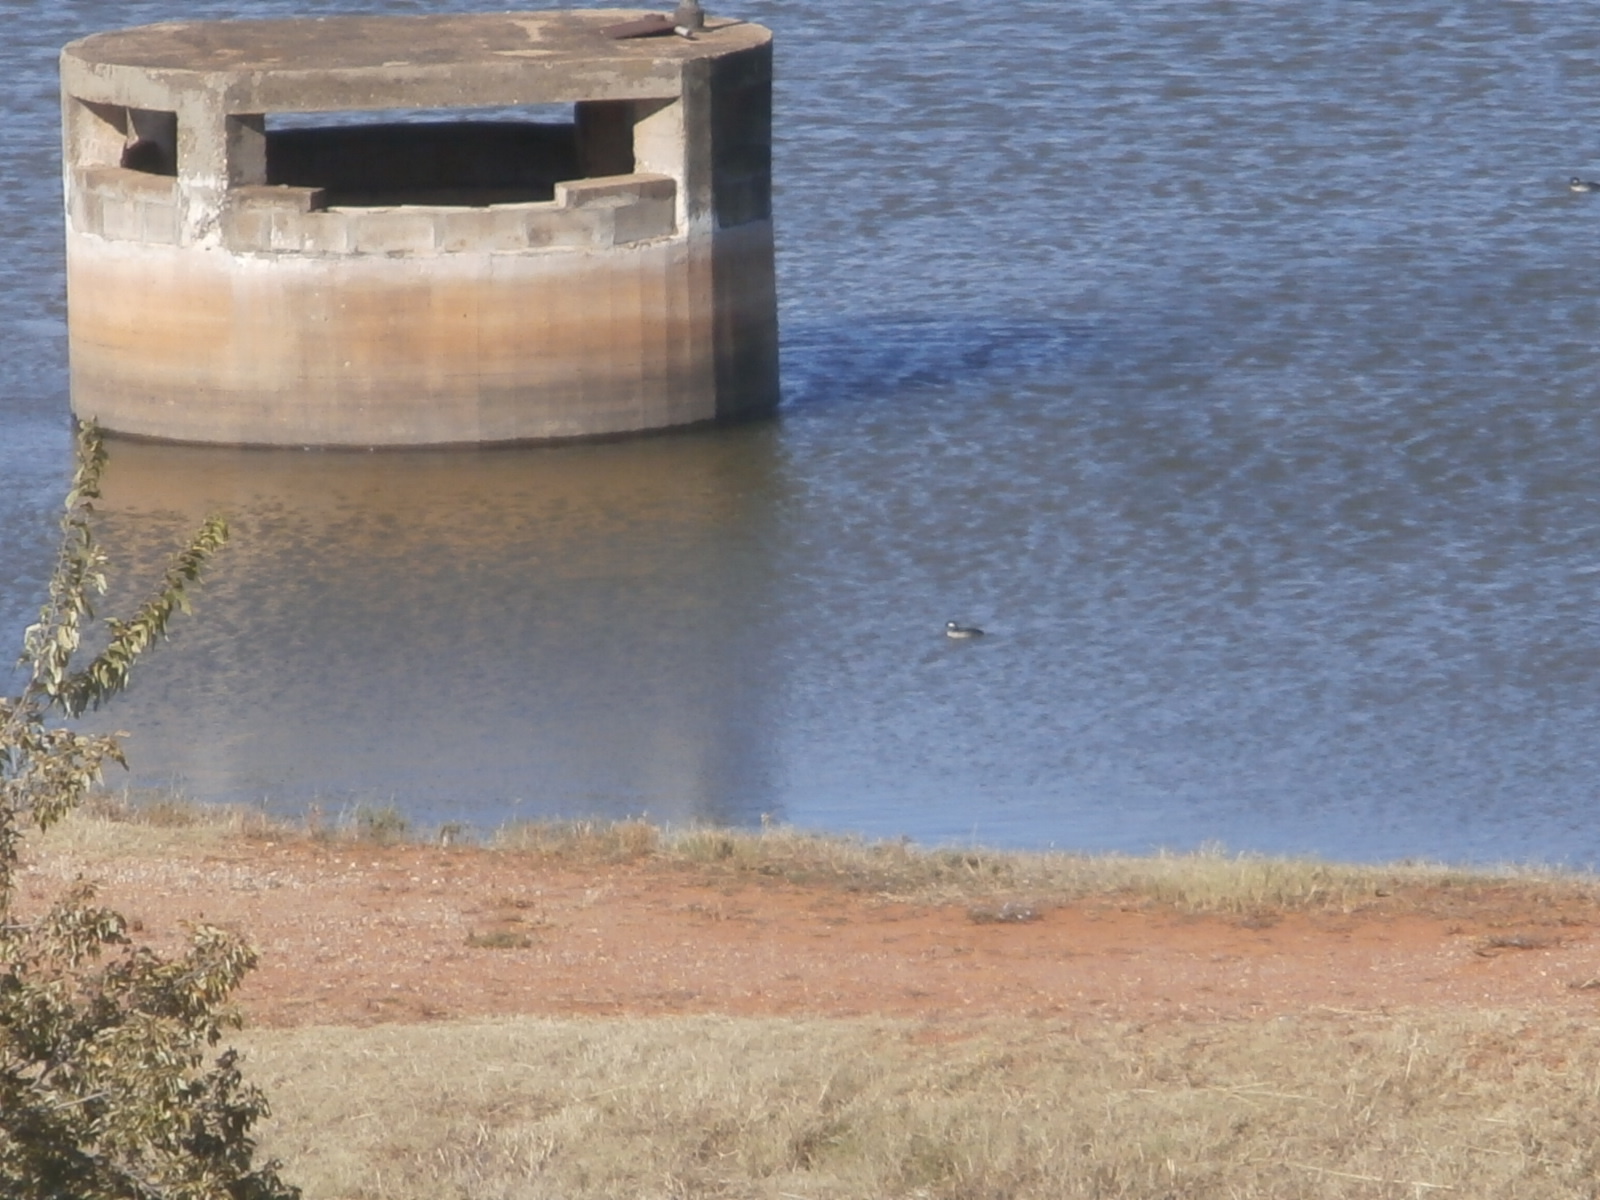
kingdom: Animalia
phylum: Chordata
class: Aves
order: Anseriformes
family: Anatidae
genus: Bucephala
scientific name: Bucephala albeola
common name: Bufflehead
